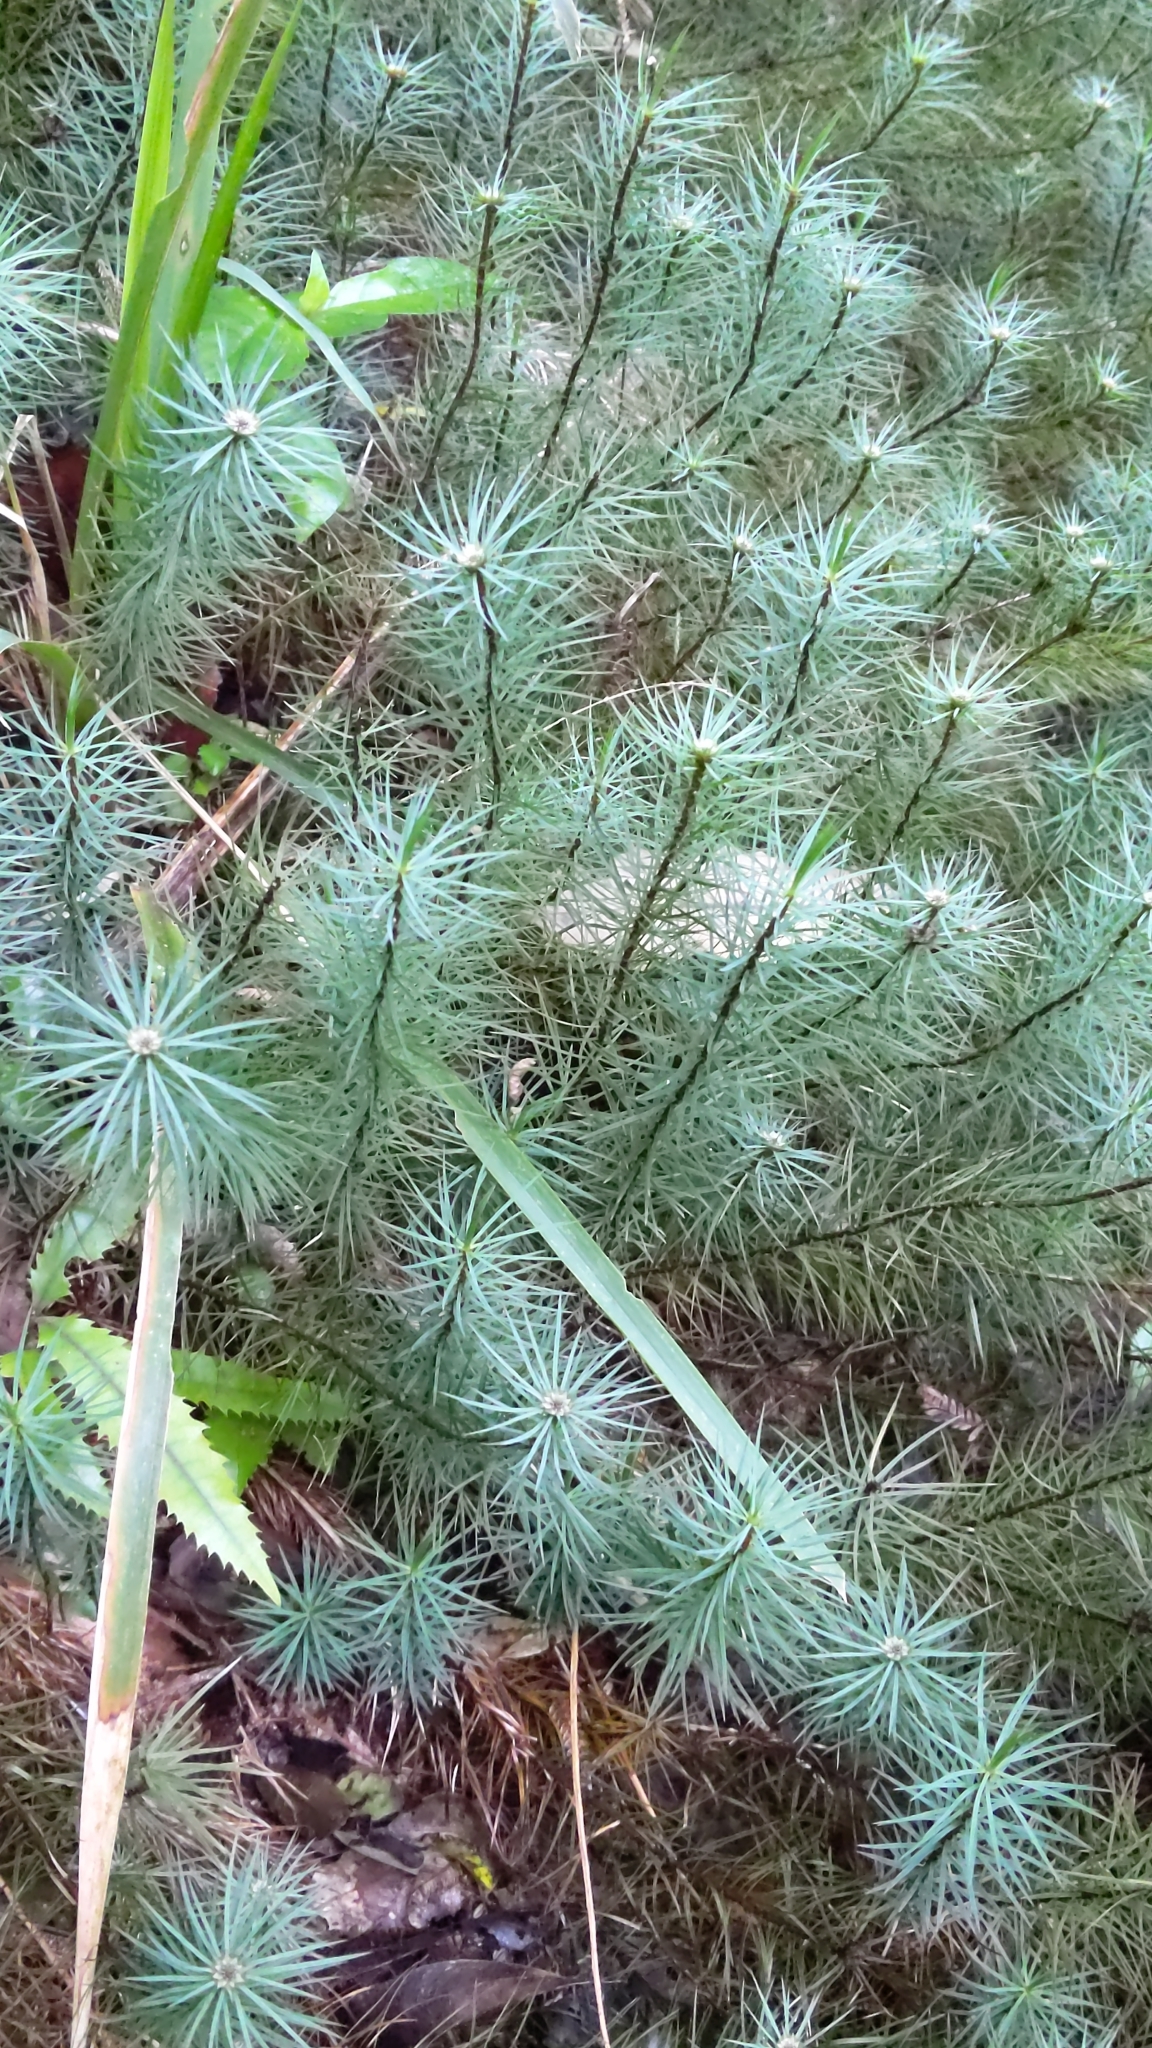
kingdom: Plantae
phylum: Bryophyta
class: Polytrichopsida
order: Polytrichales
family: Polytrichaceae
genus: Dawsonia
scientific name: Dawsonia superba
